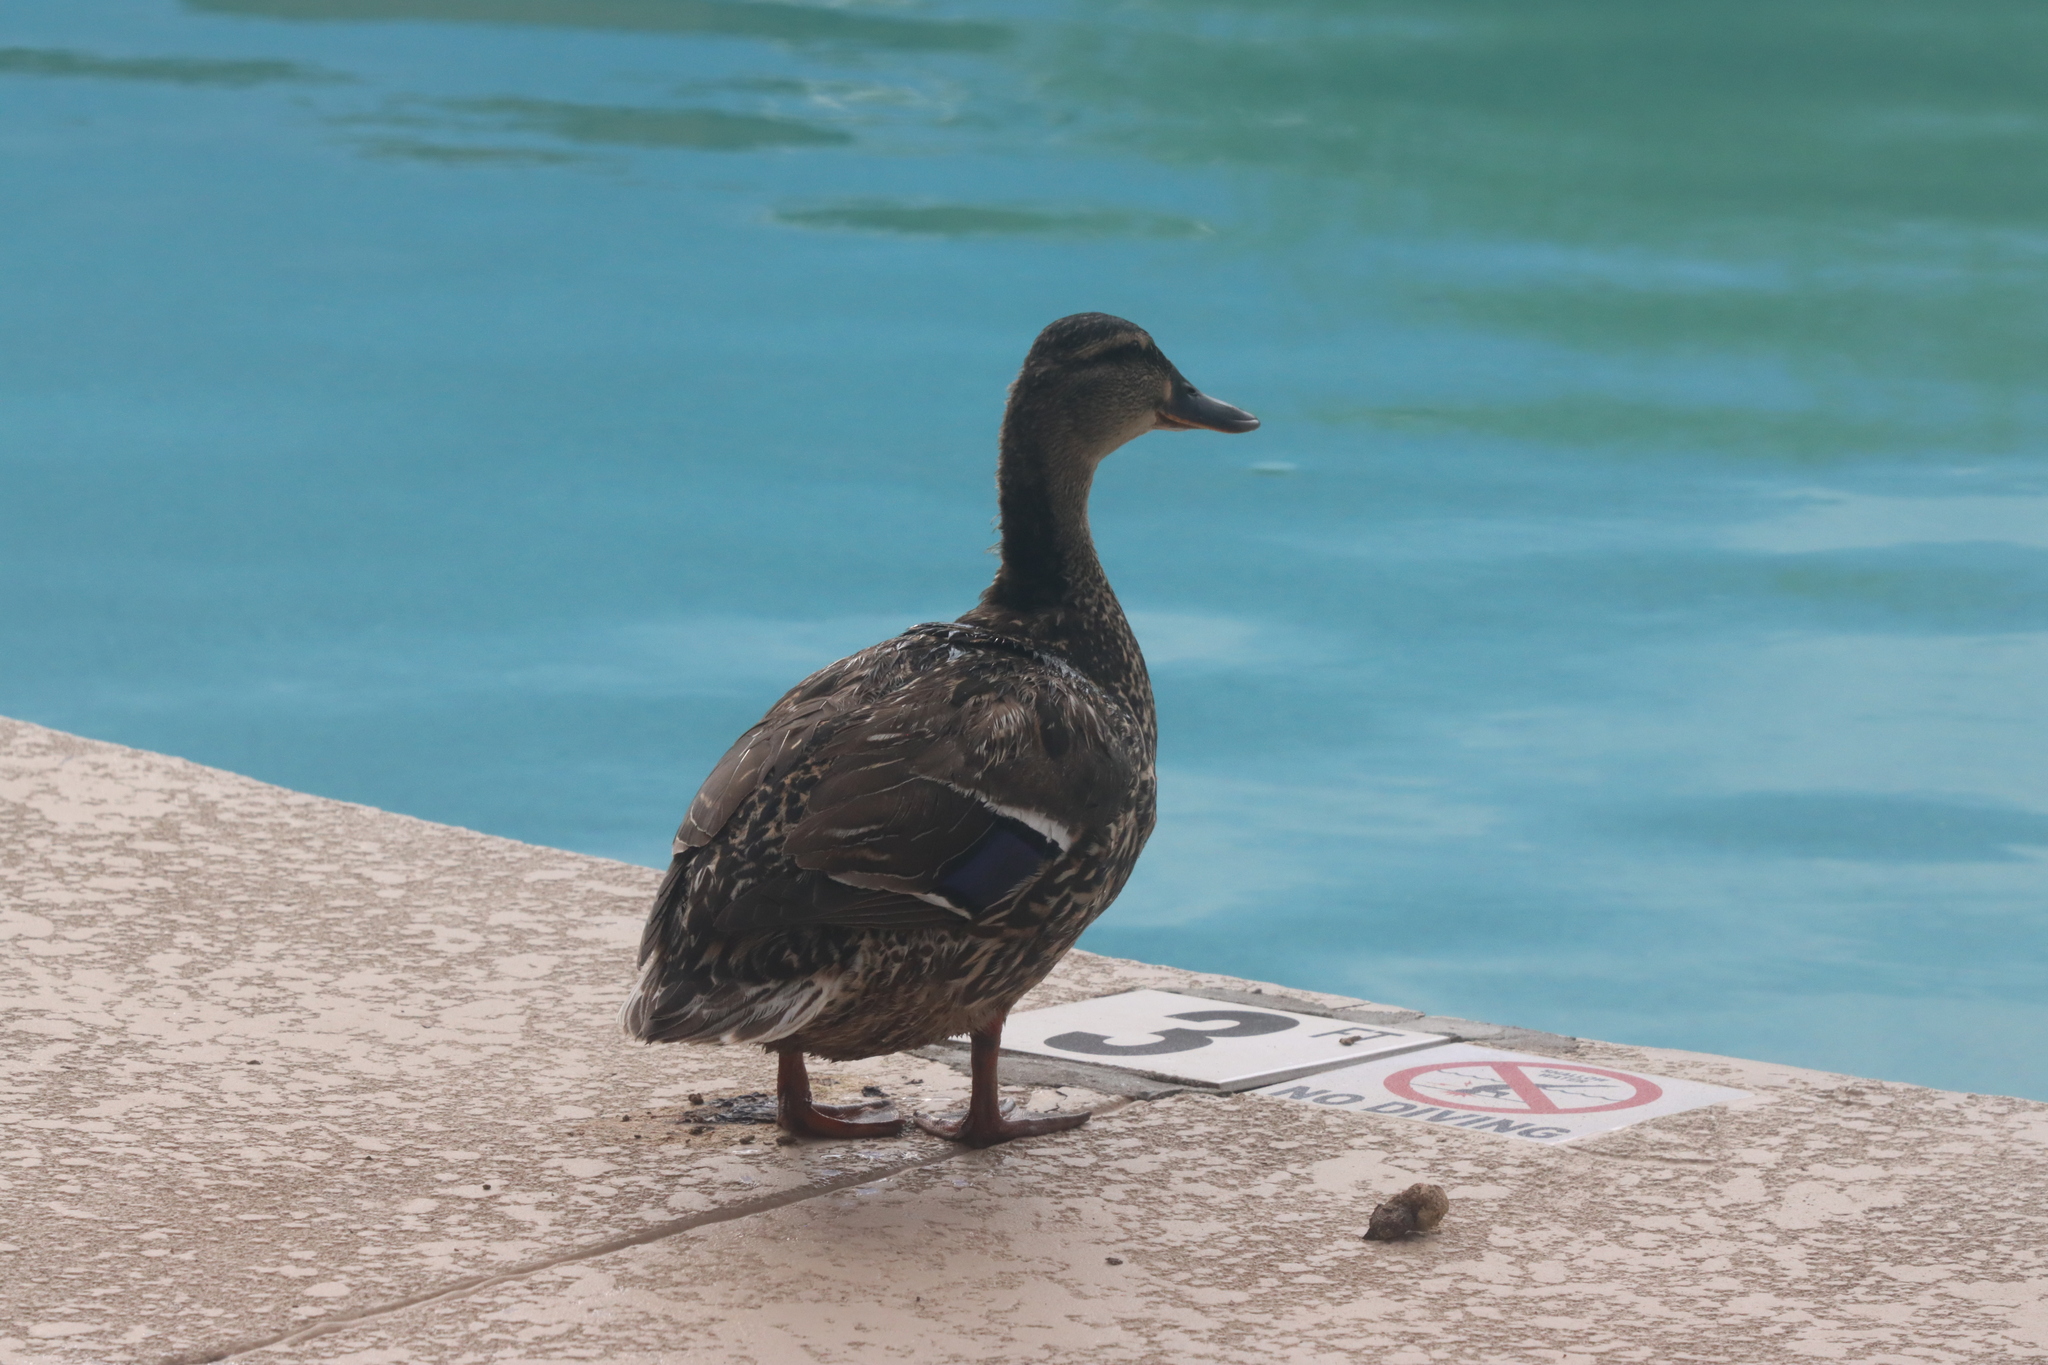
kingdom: Animalia
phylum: Chordata
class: Aves
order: Anseriformes
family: Anatidae
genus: Anas
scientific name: Anas platyrhynchos
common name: Mallard
